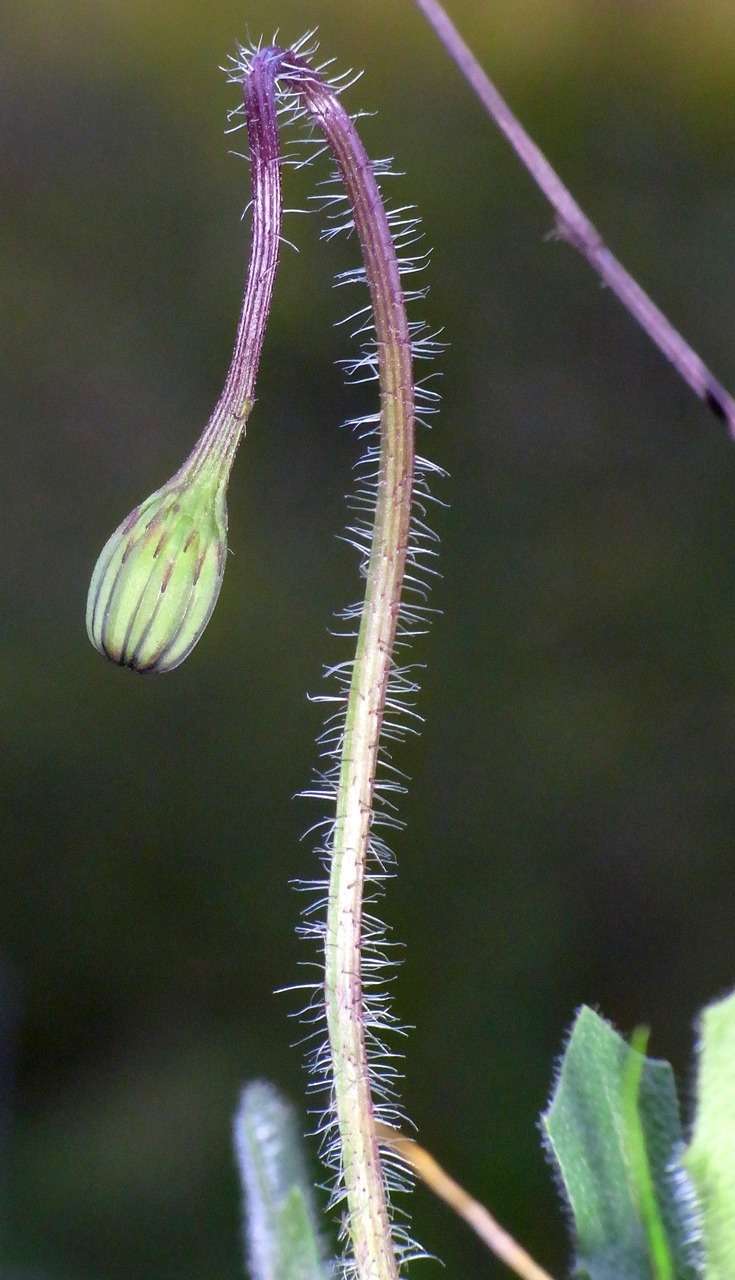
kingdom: Plantae
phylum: Tracheophyta
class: Magnoliopsida
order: Asterales
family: Asteraceae
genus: Thrincia
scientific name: Thrincia saxatilis
